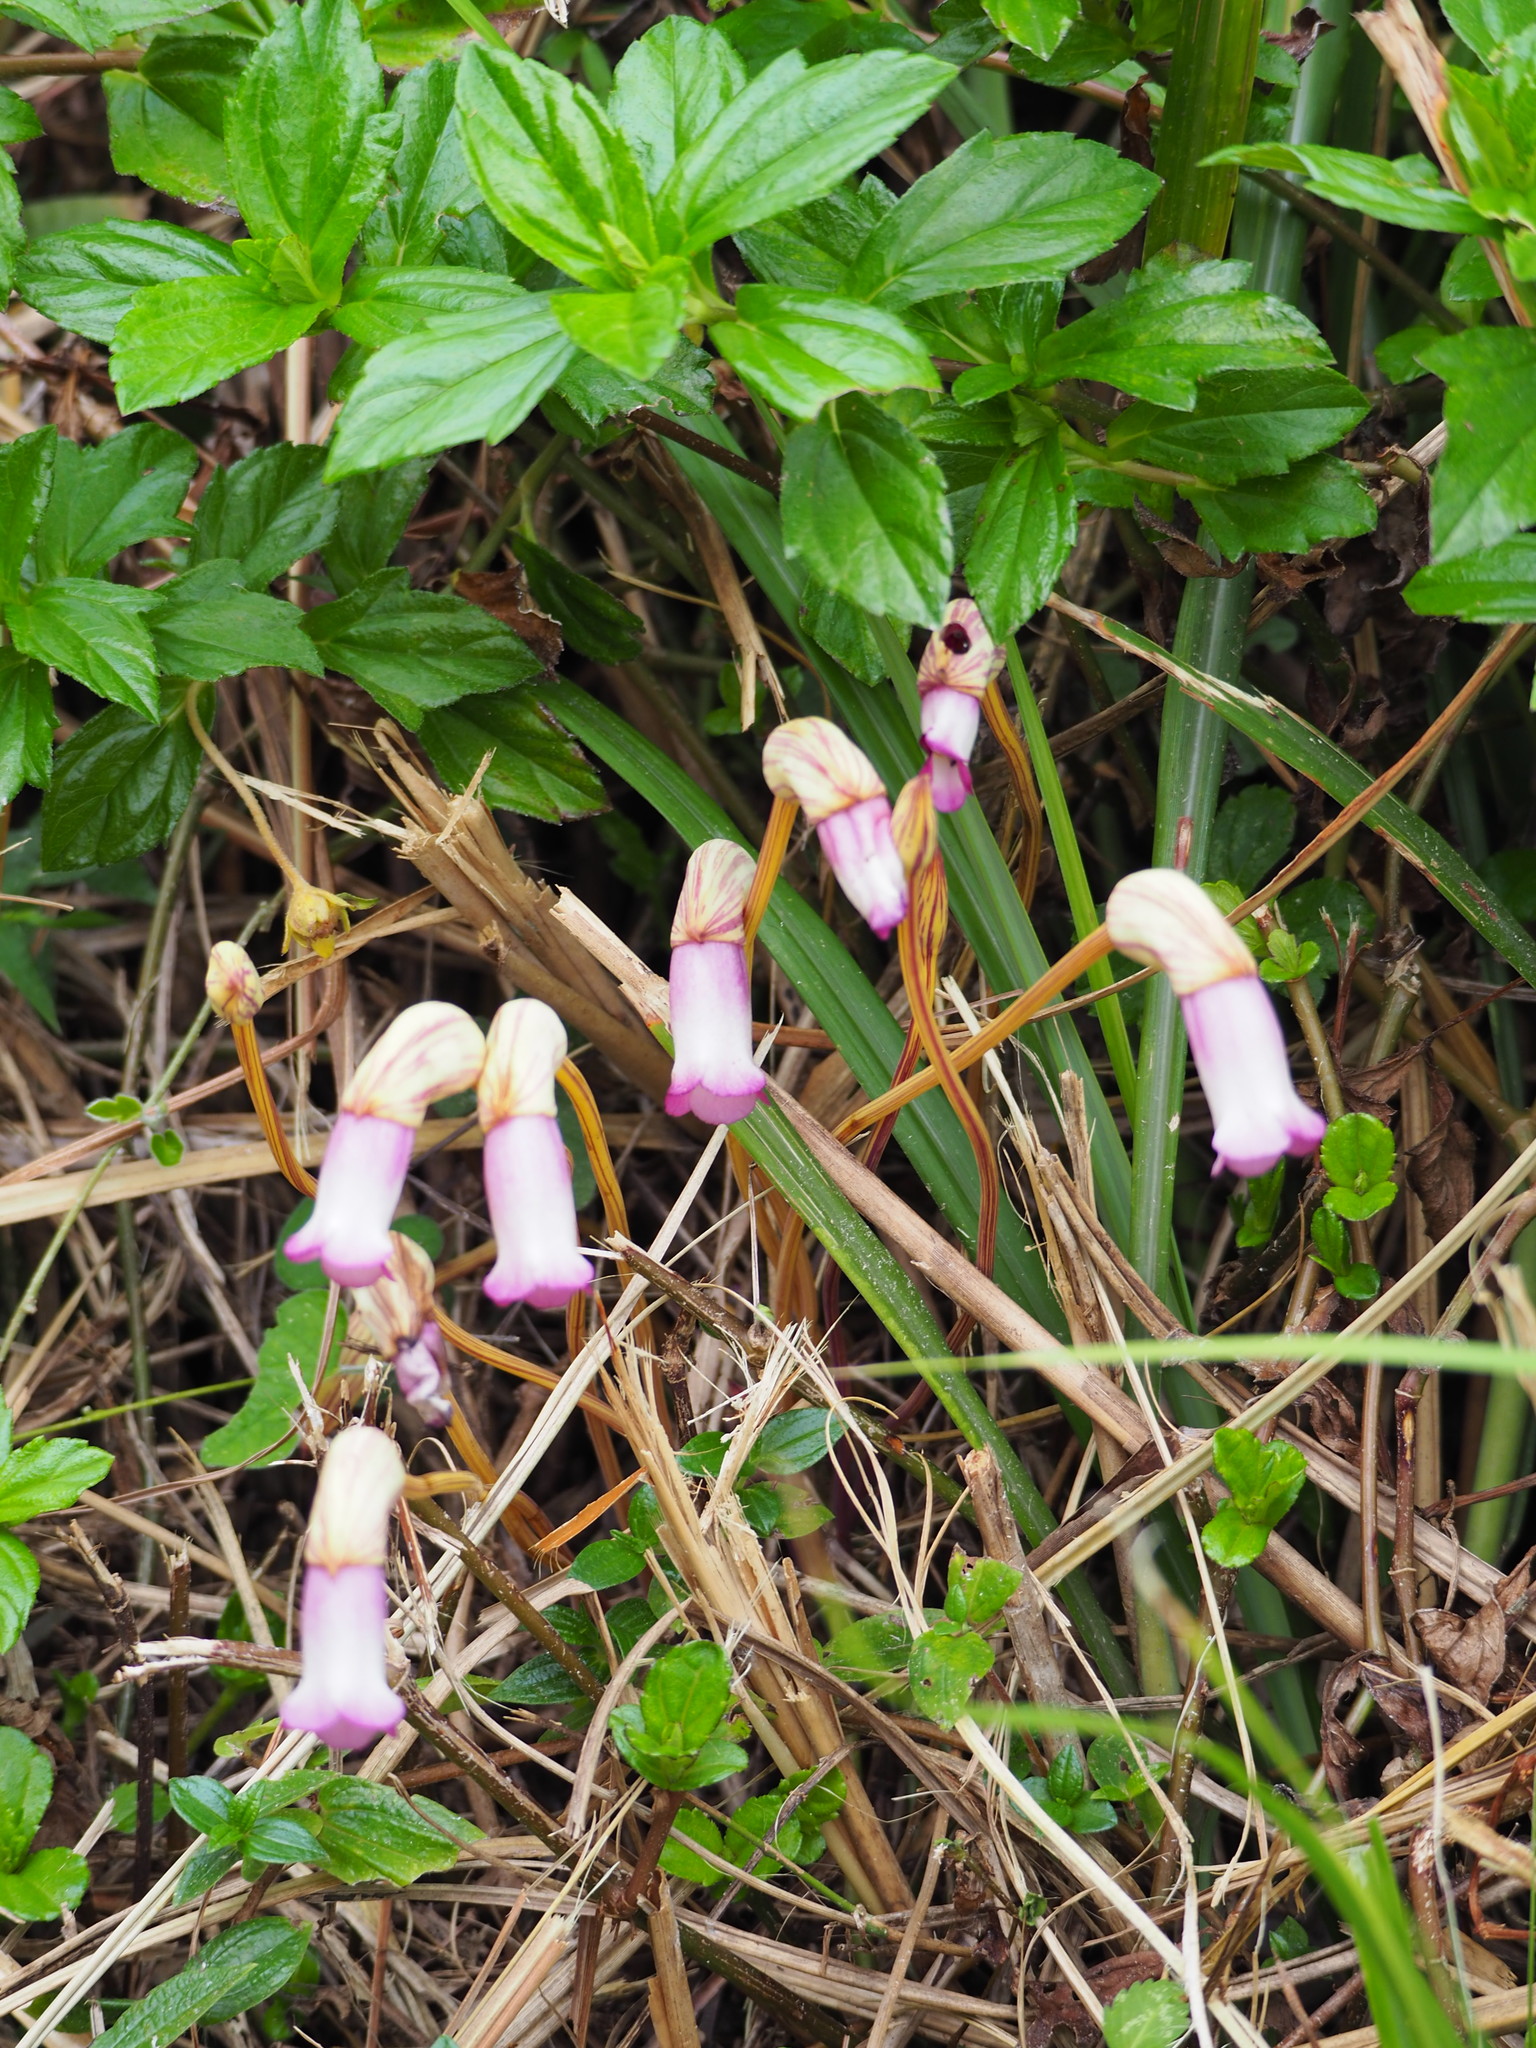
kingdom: Plantae
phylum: Tracheophyta
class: Magnoliopsida
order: Lamiales
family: Orobanchaceae
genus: Aeginetia
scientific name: Aeginetia indica
